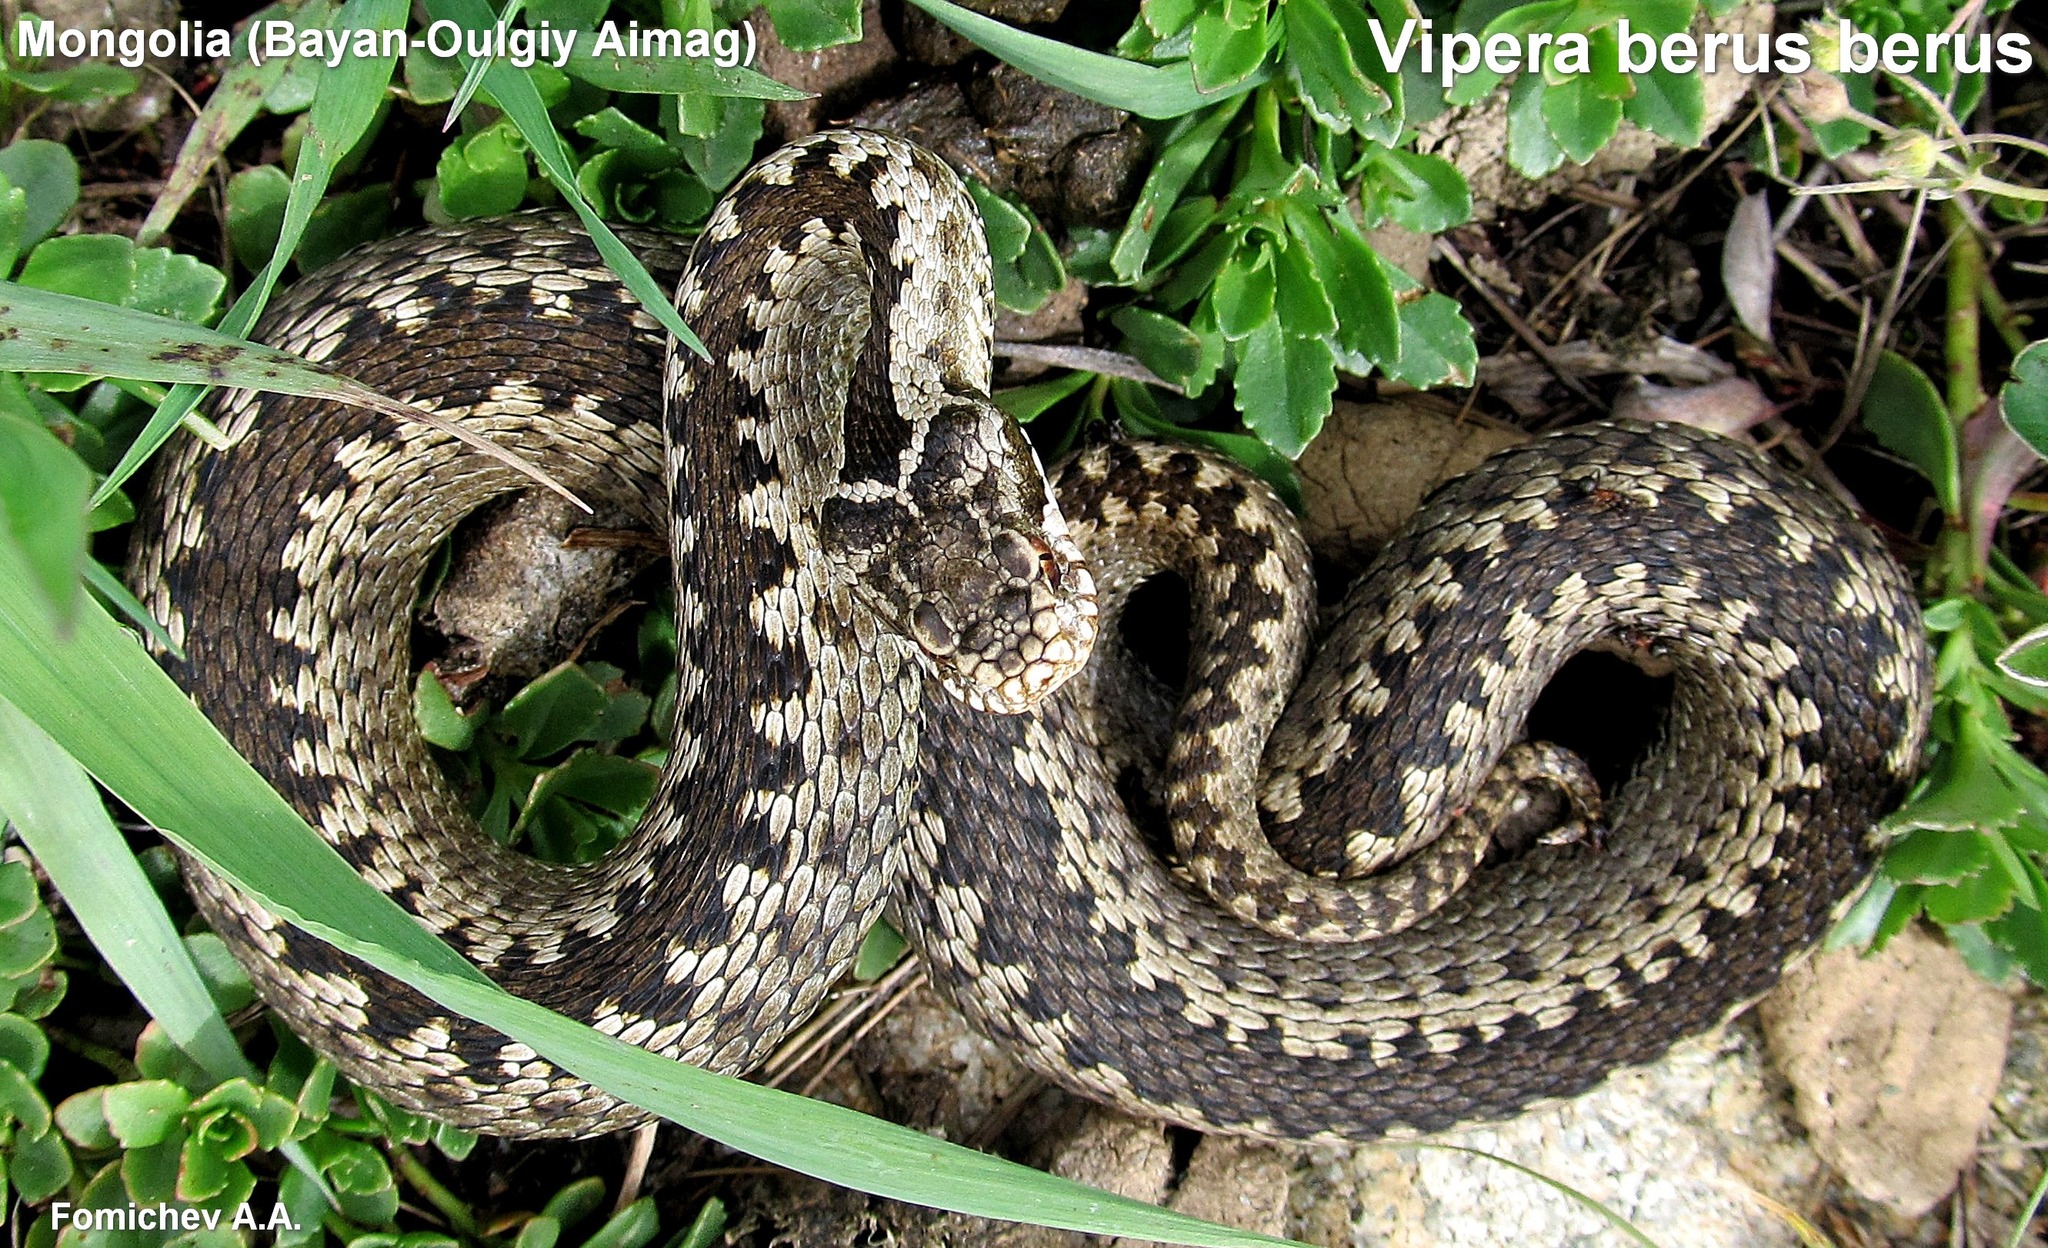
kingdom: Animalia
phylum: Chordata
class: Squamata
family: Viperidae
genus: Vipera
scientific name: Vipera berus
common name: Adder
